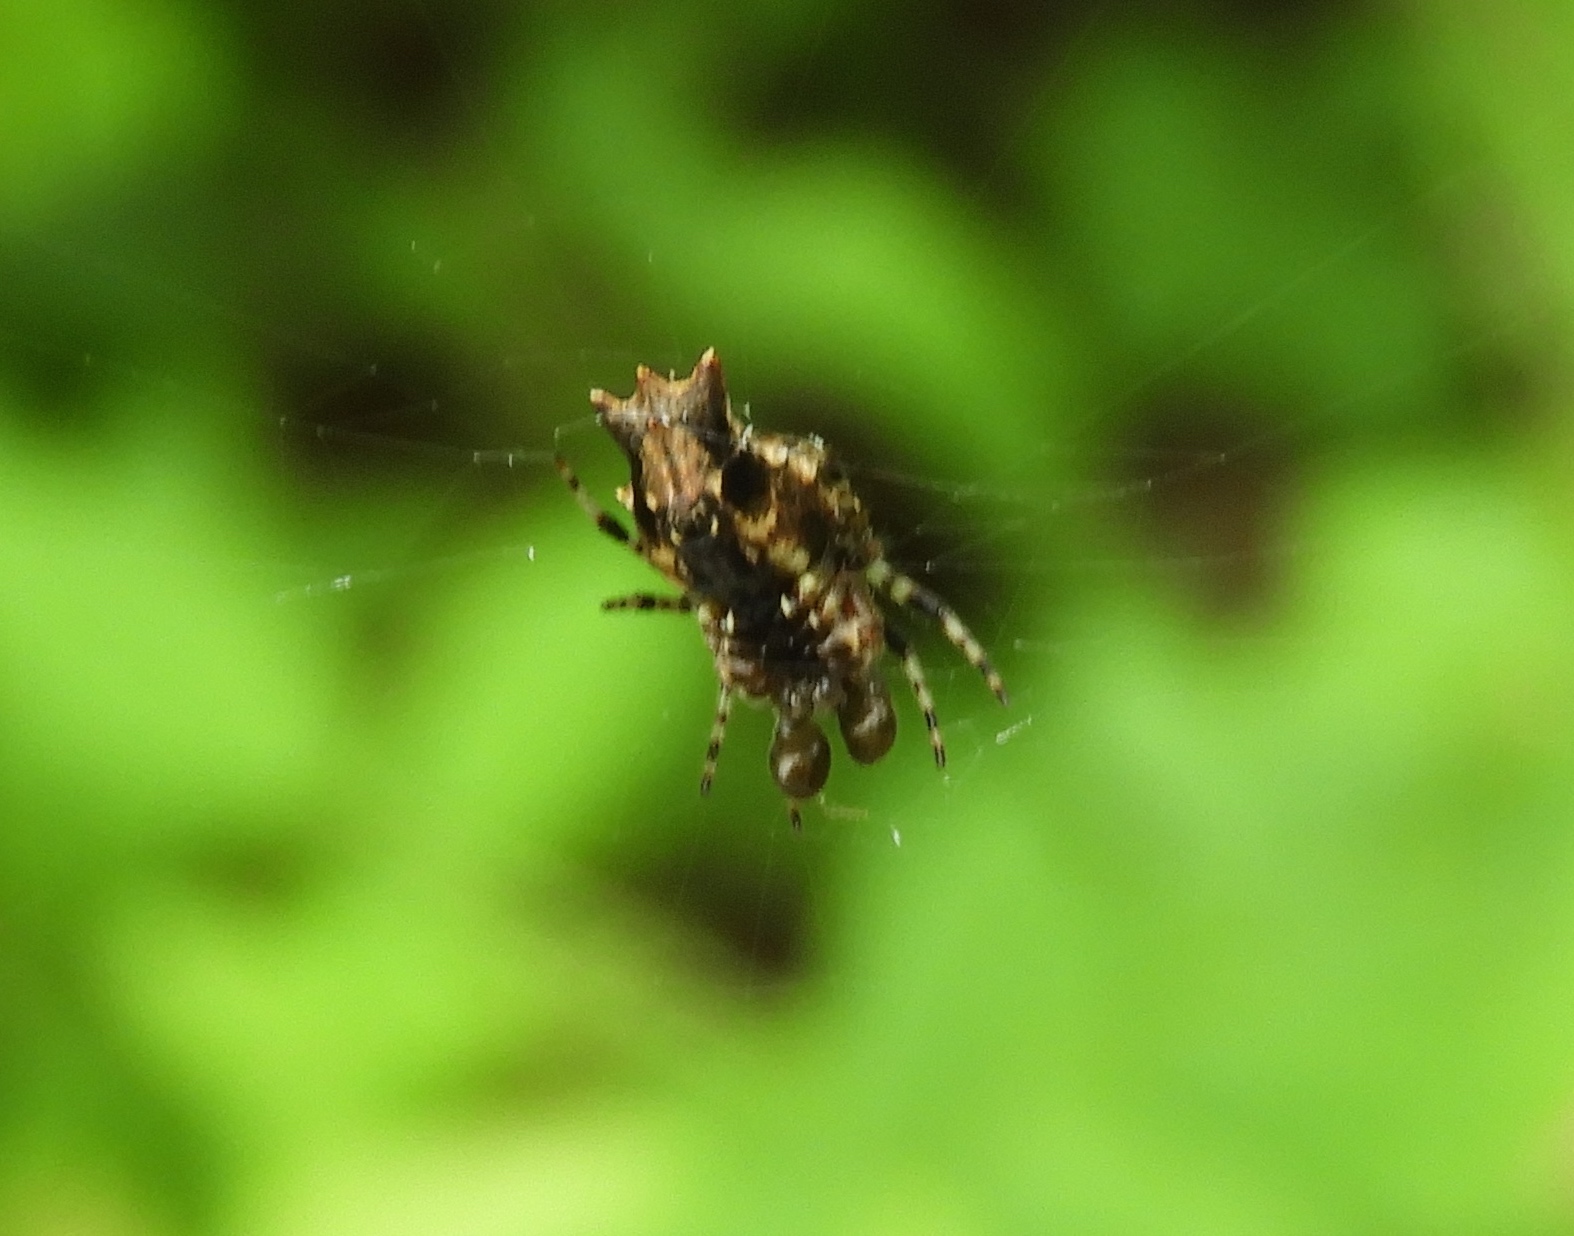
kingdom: Animalia
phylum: Arthropoda
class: Arachnida
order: Araneae
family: Araneidae
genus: Wagneriana
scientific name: Wagneriana
